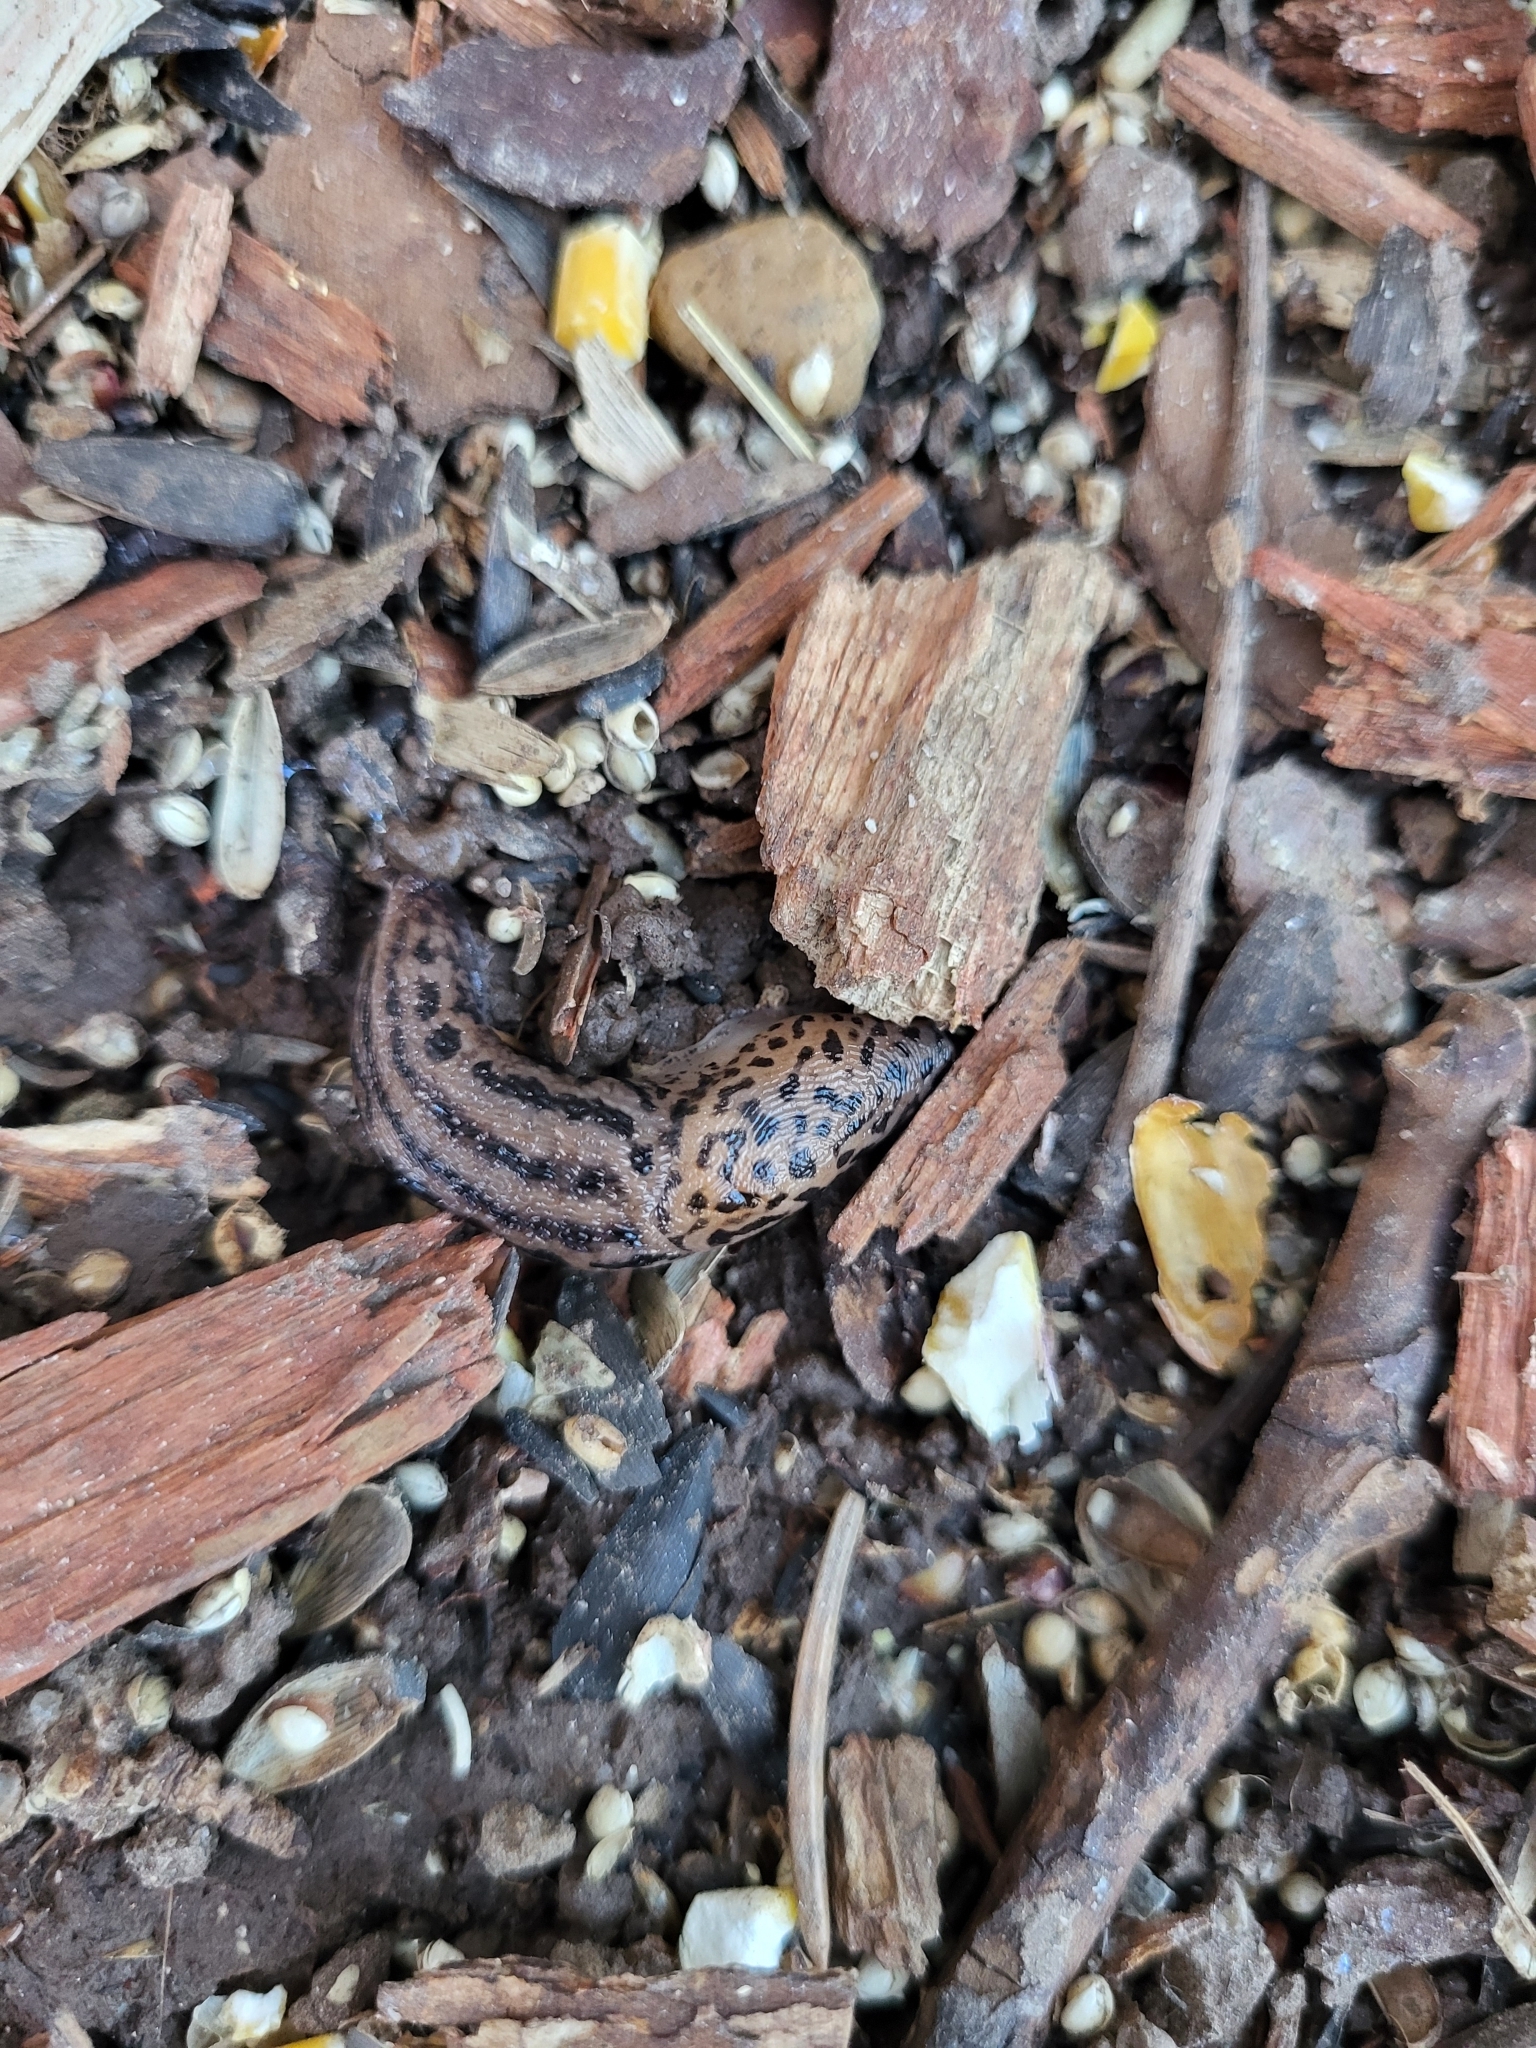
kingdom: Animalia
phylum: Mollusca
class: Gastropoda
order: Stylommatophora
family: Limacidae
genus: Limax
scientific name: Limax maximus
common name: Great grey slug
